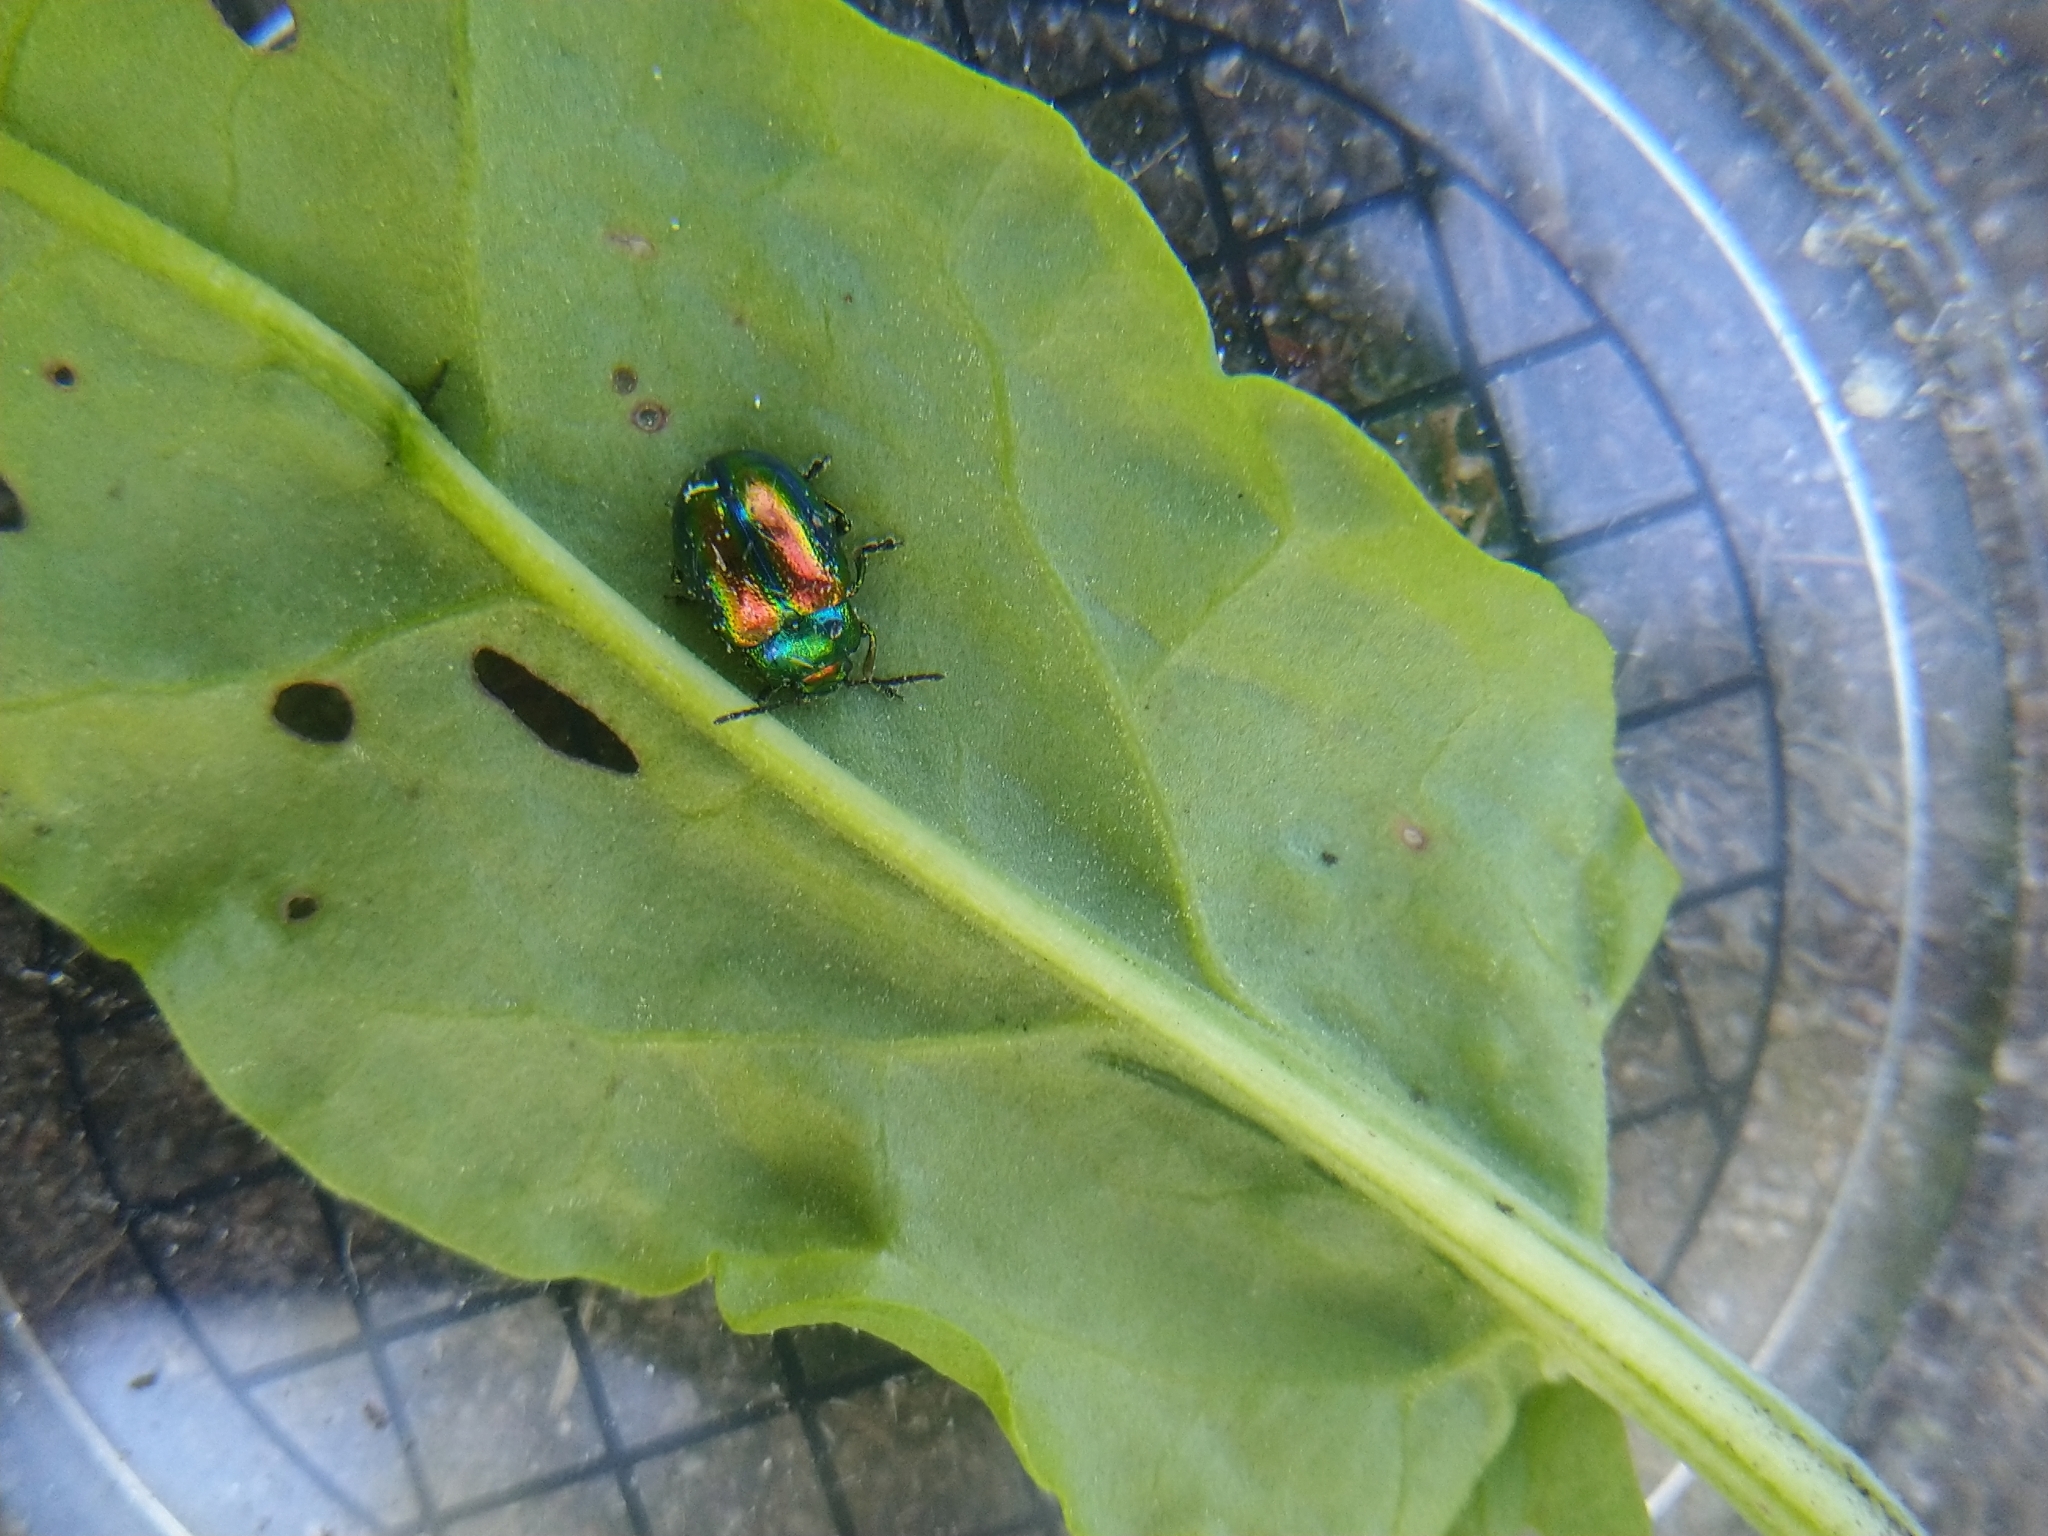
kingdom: Animalia
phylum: Arthropoda
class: Insecta
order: Coleoptera
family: Chrysomelidae
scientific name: Chrysomelidae
